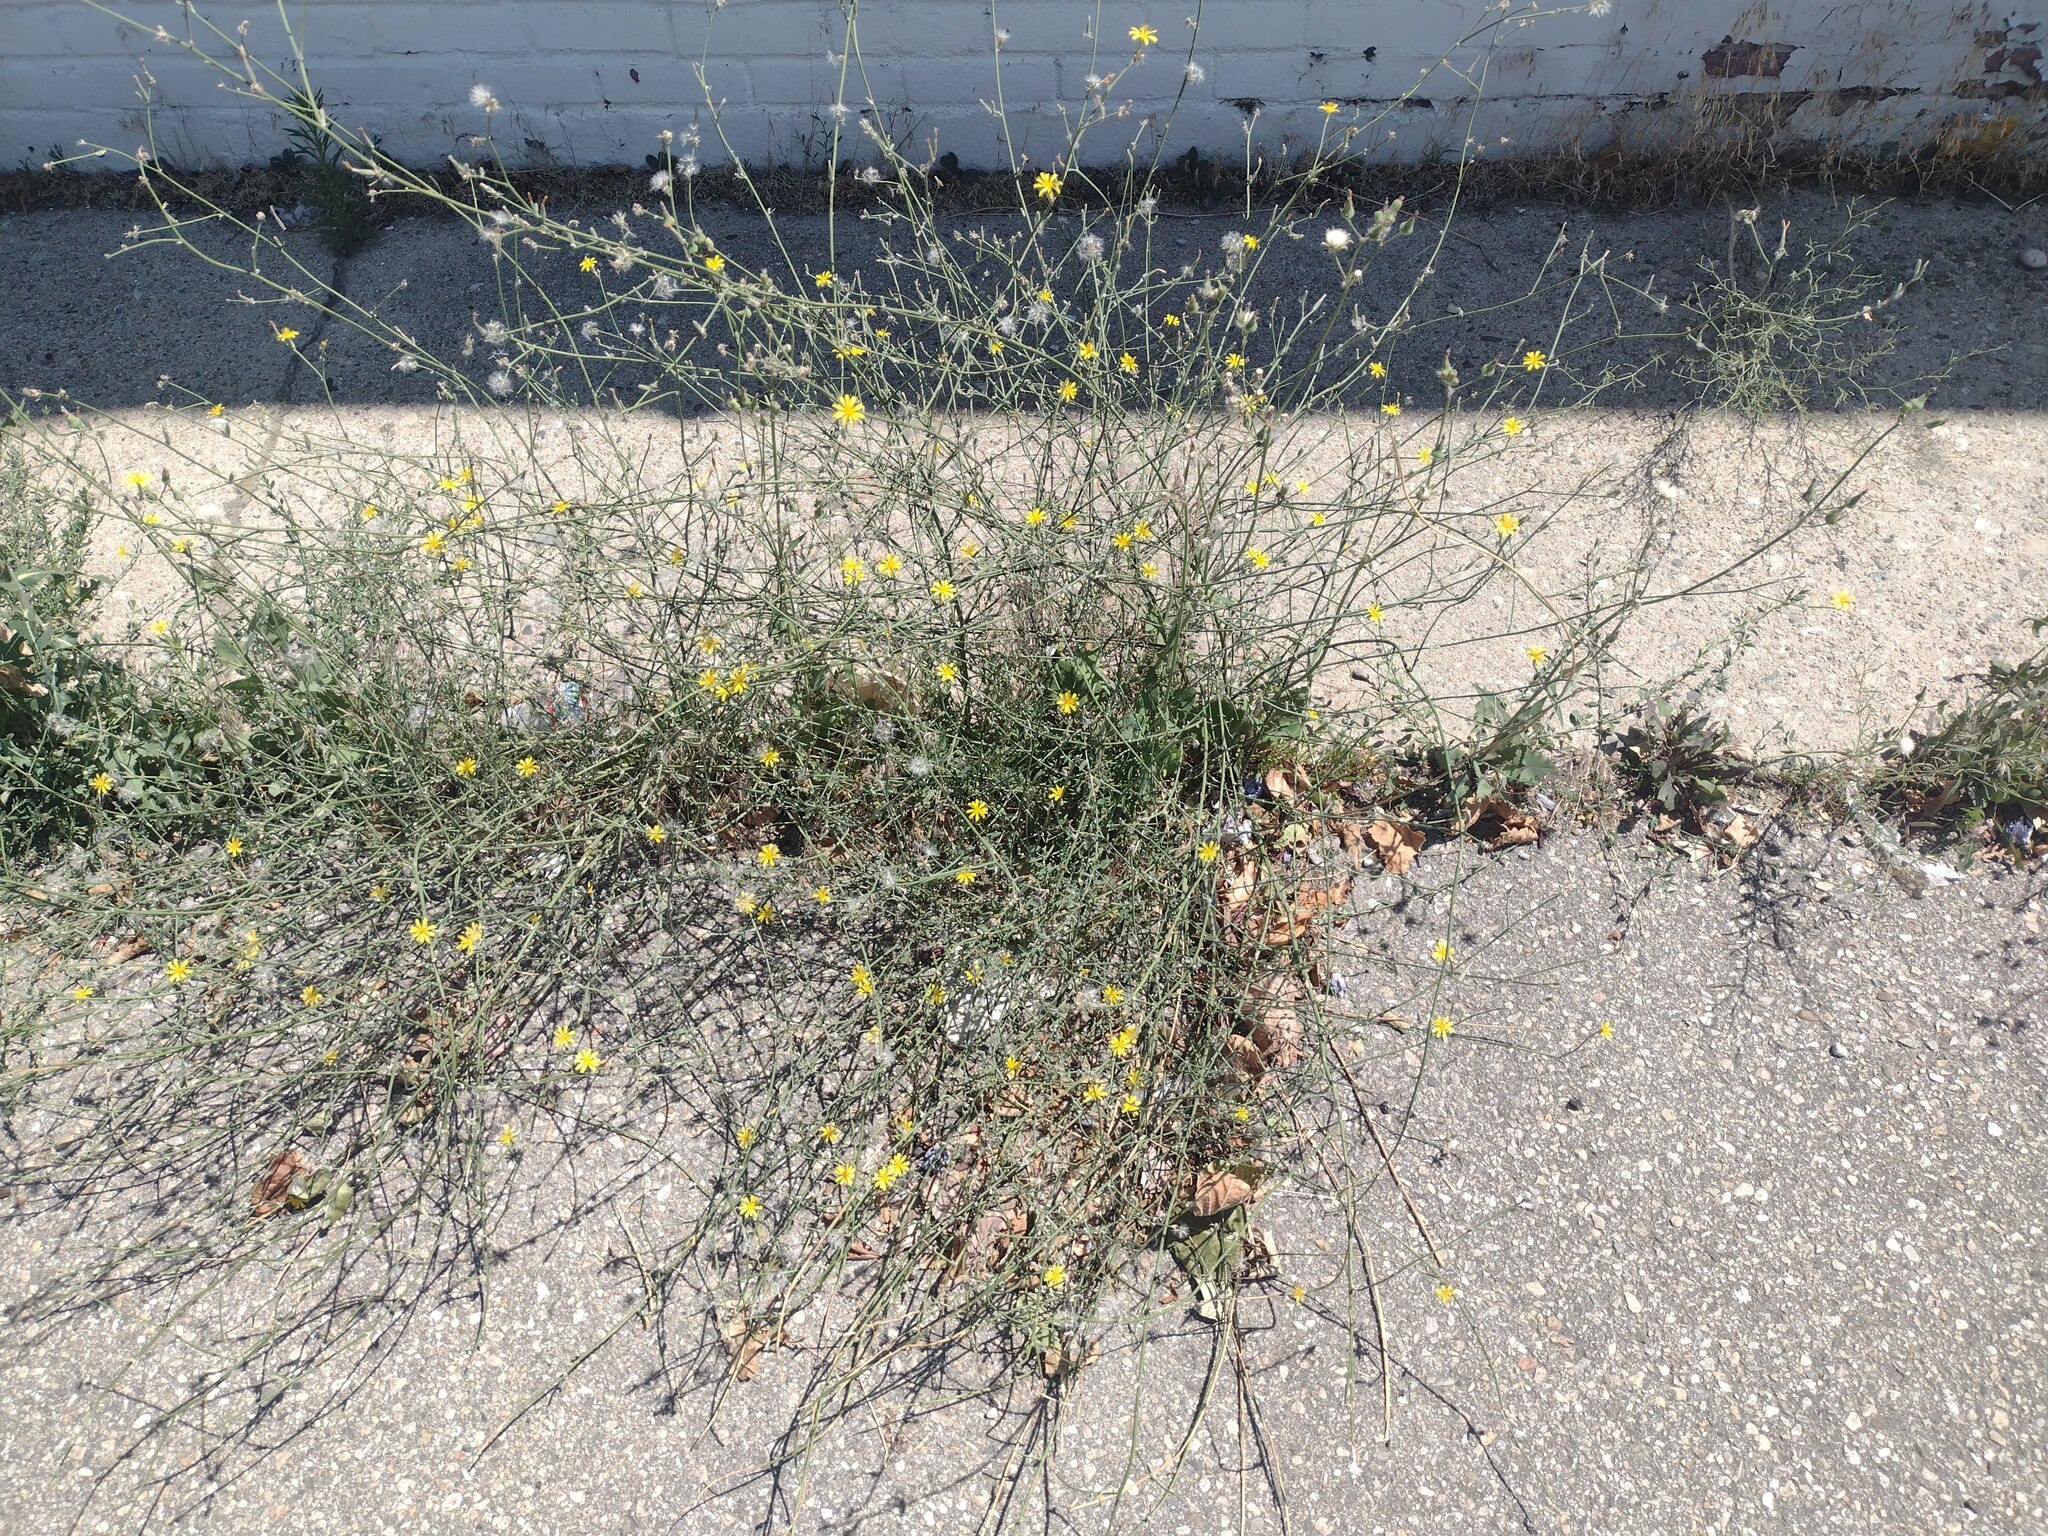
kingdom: Plantae
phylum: Tracheophyta
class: Magnoliopsida
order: Asterales
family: Asteraceae
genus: Chondrilla
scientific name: Chondrilla juncea
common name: Skeleton weed
